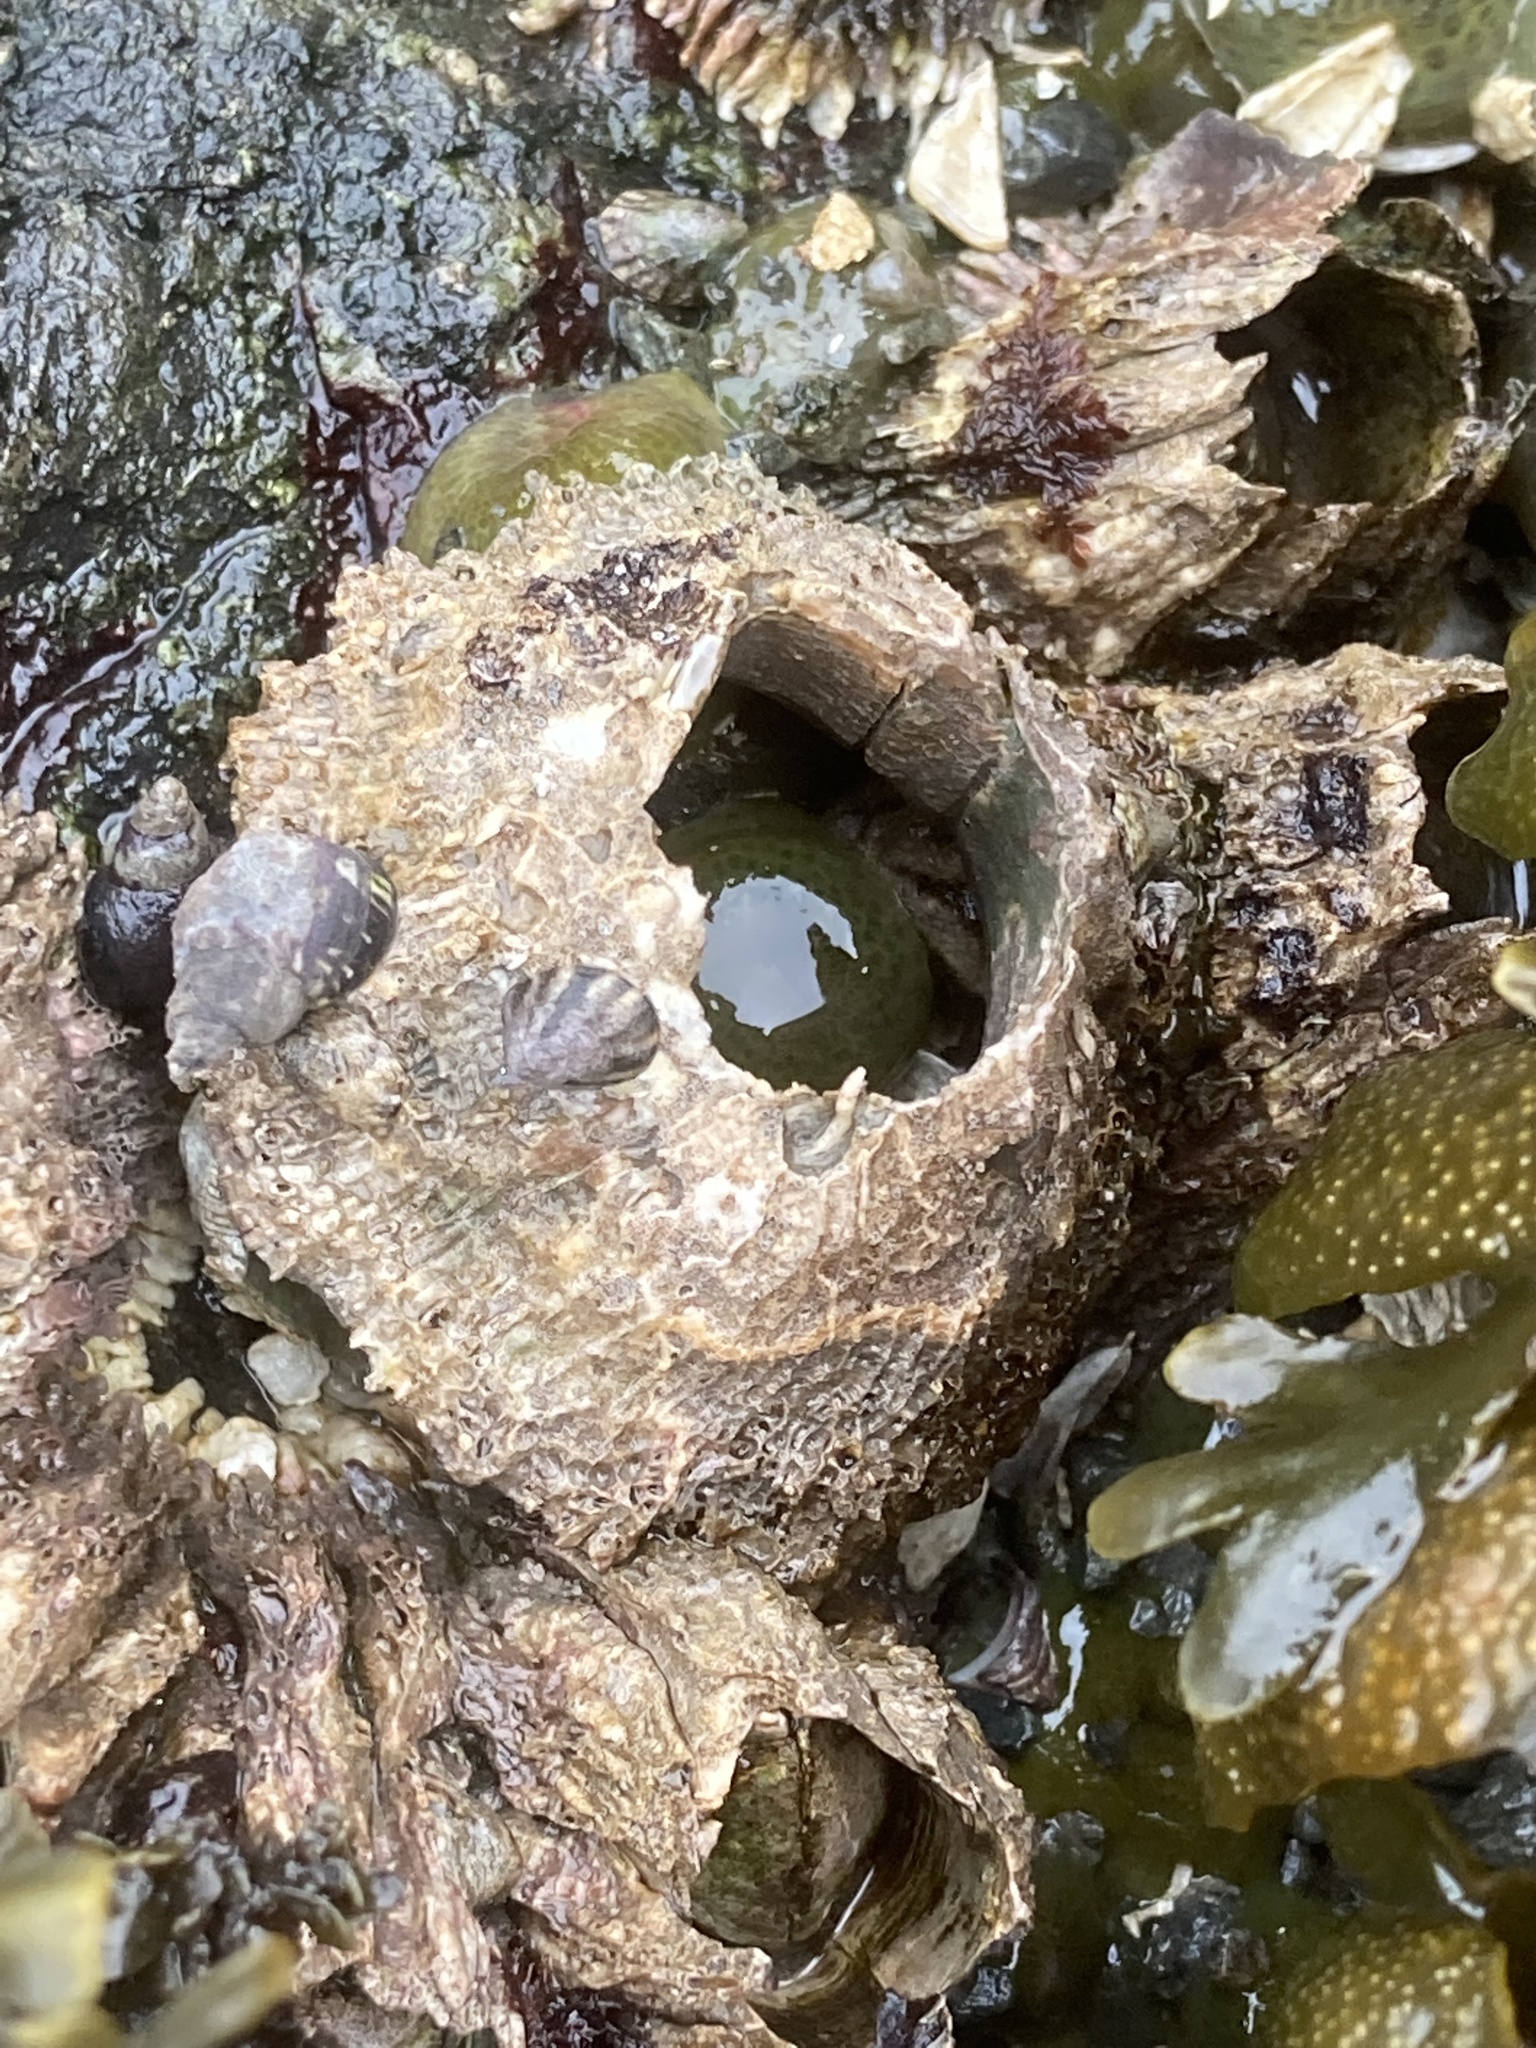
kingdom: Animalia
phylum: Arthropoda
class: Maxillopoda
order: Sessilia
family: Archaeobalanidae
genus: Semibalanus
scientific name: Semibalanus cariosus
